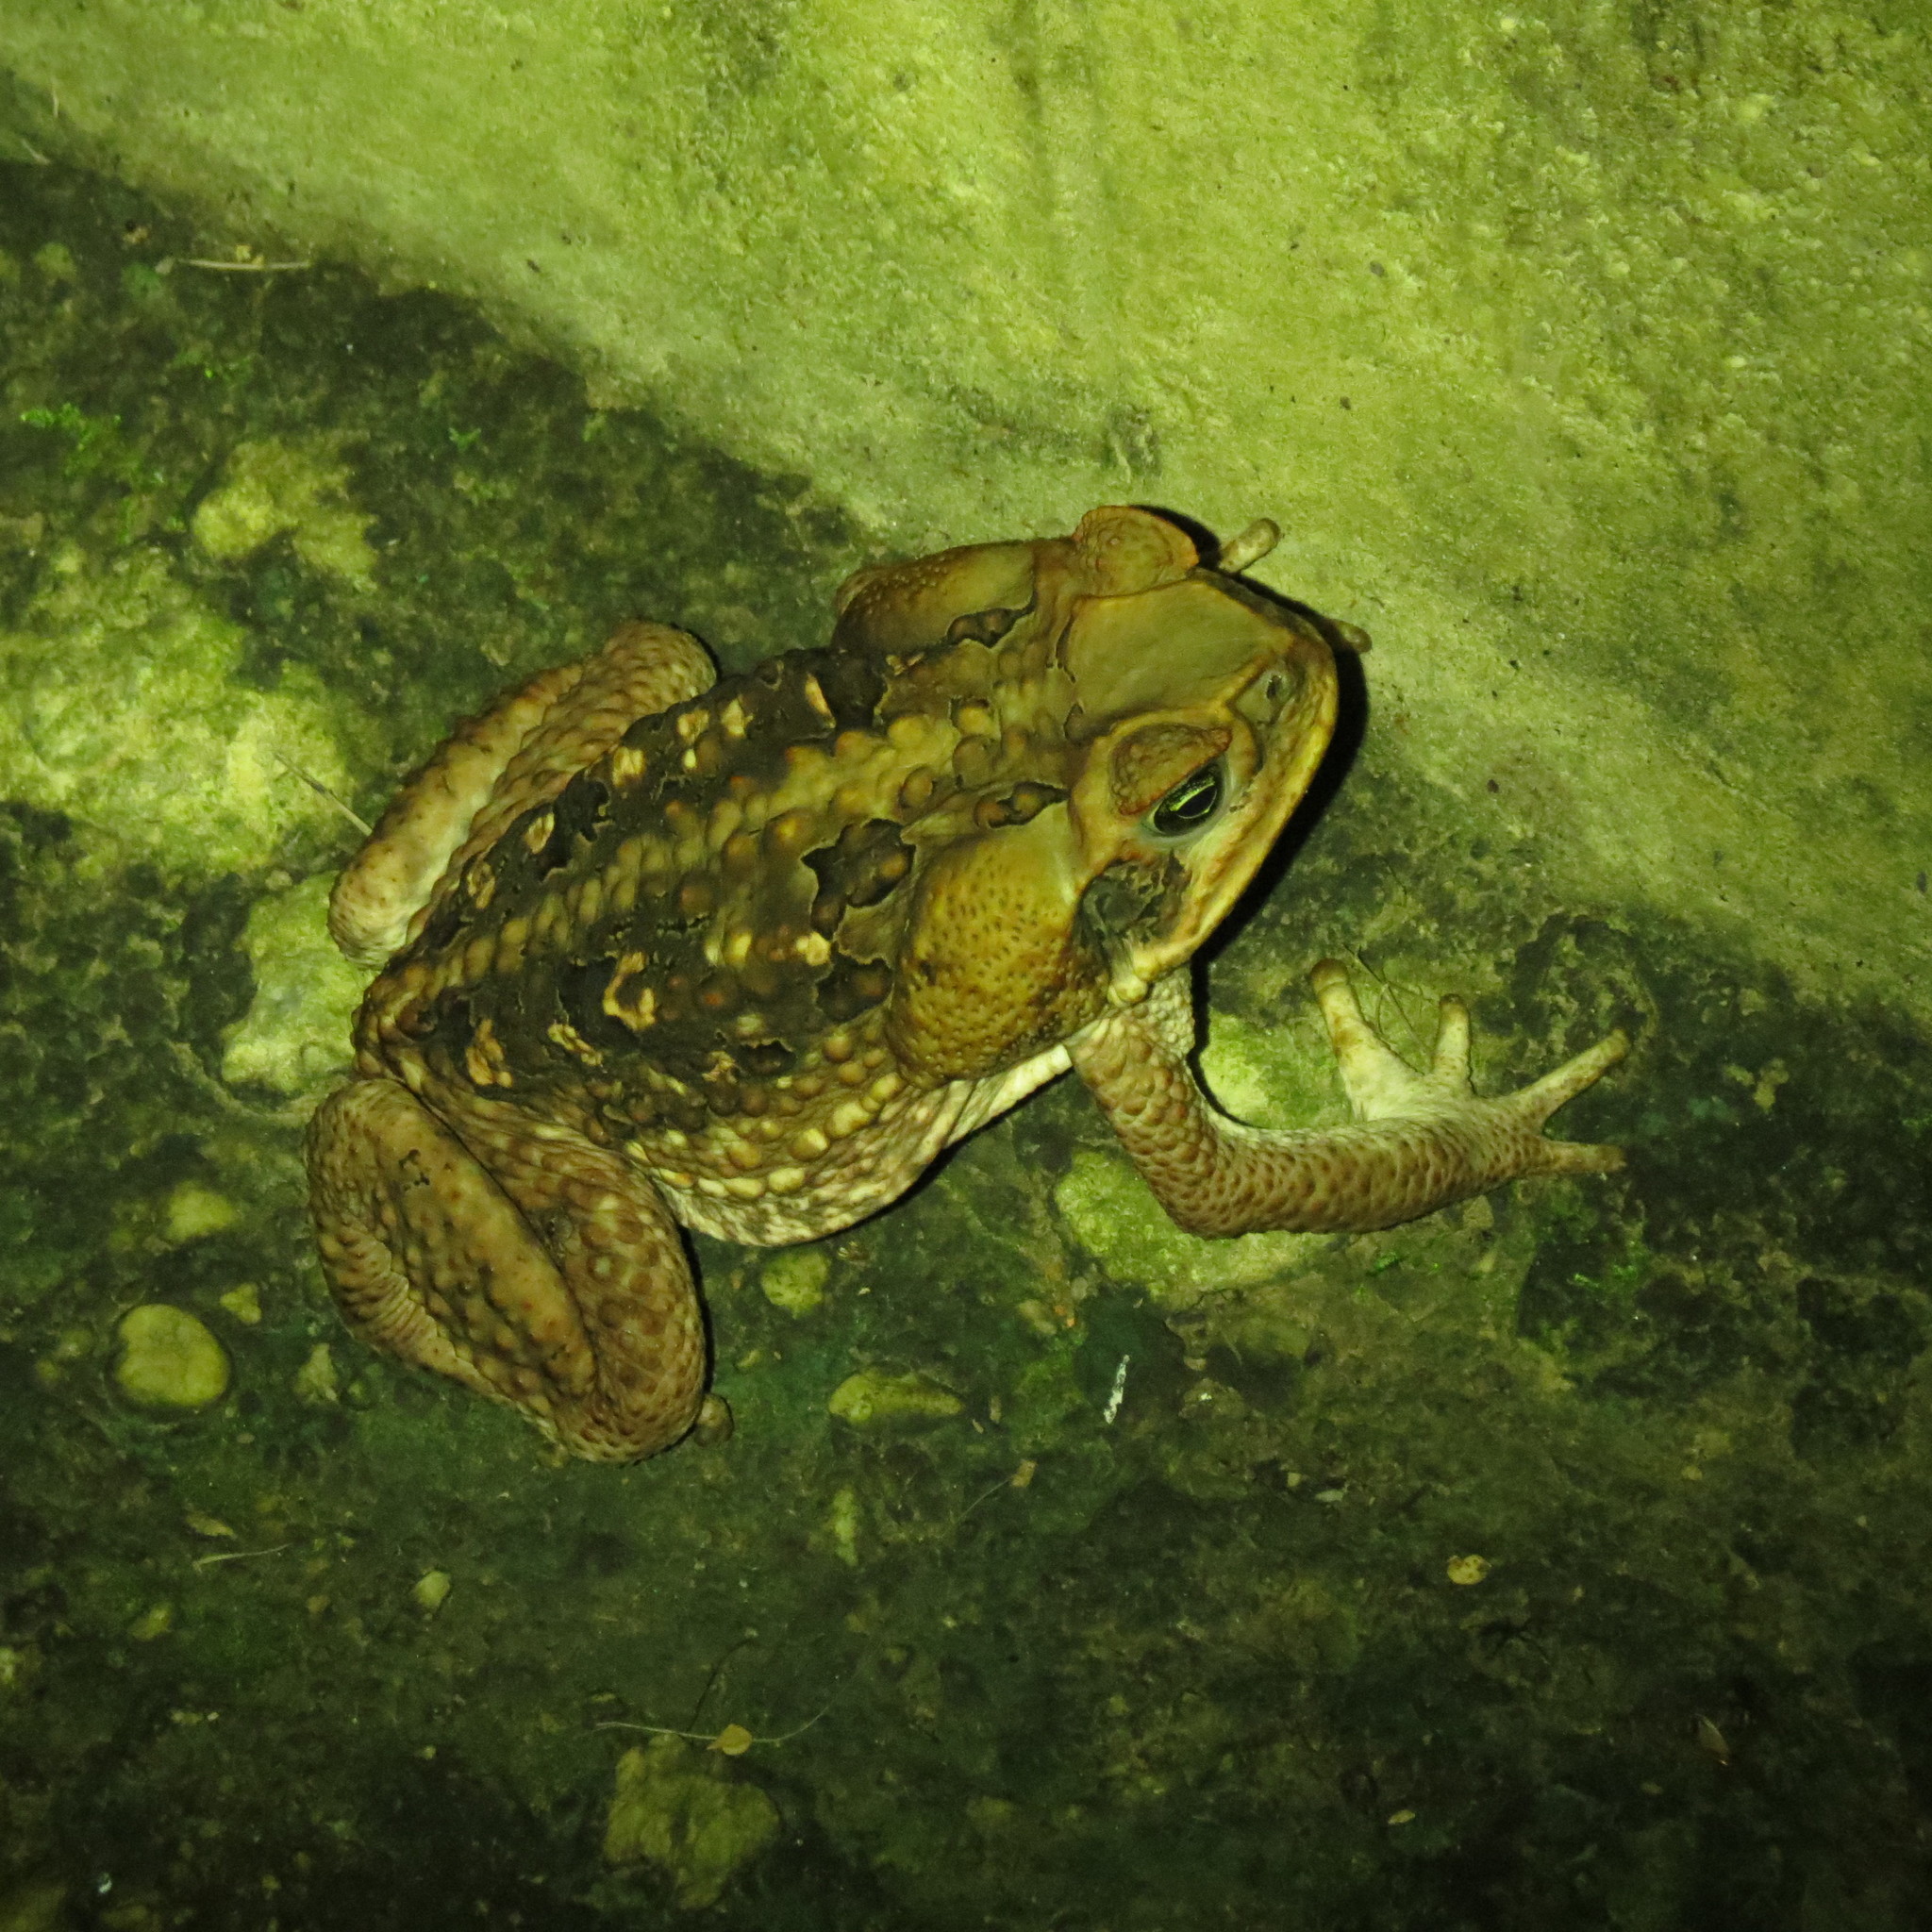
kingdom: Animalia
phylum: Chordata
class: Amphibia
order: Anura
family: Bufonidae
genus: Rhinella
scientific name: Rhinella marina
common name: Cane toad
